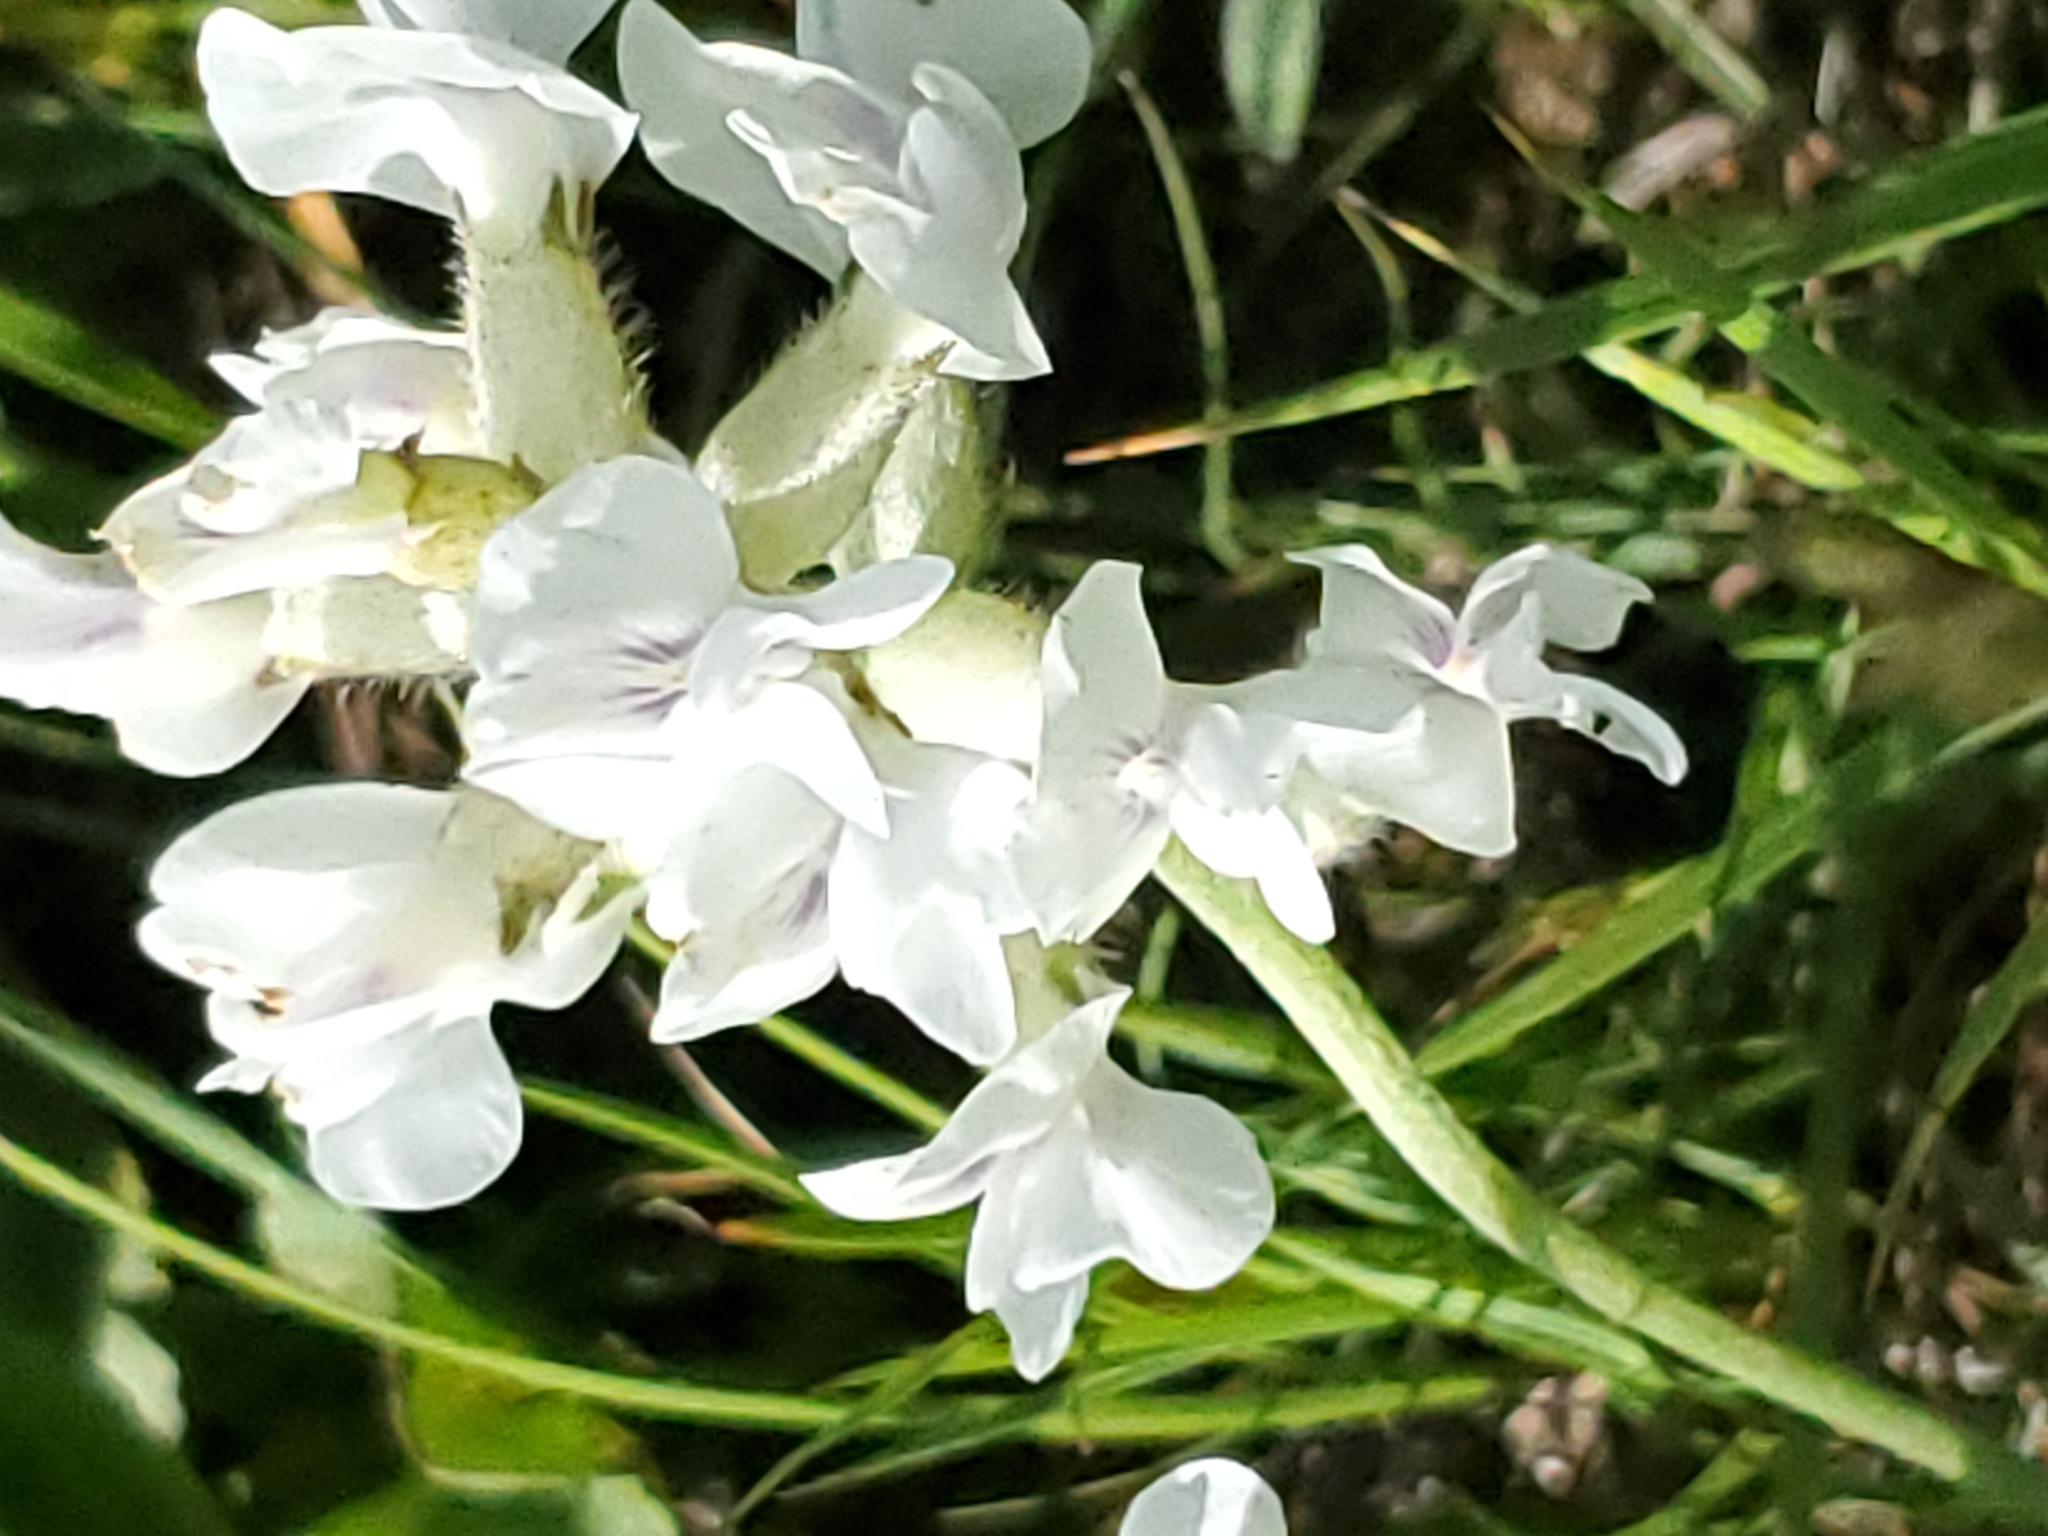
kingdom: Plantae
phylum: Tracheophyta
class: Magnoliopsida
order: Fabales
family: Fabaceae
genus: Oxytropis
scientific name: Oxytropis sericea
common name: Silky locoweed
